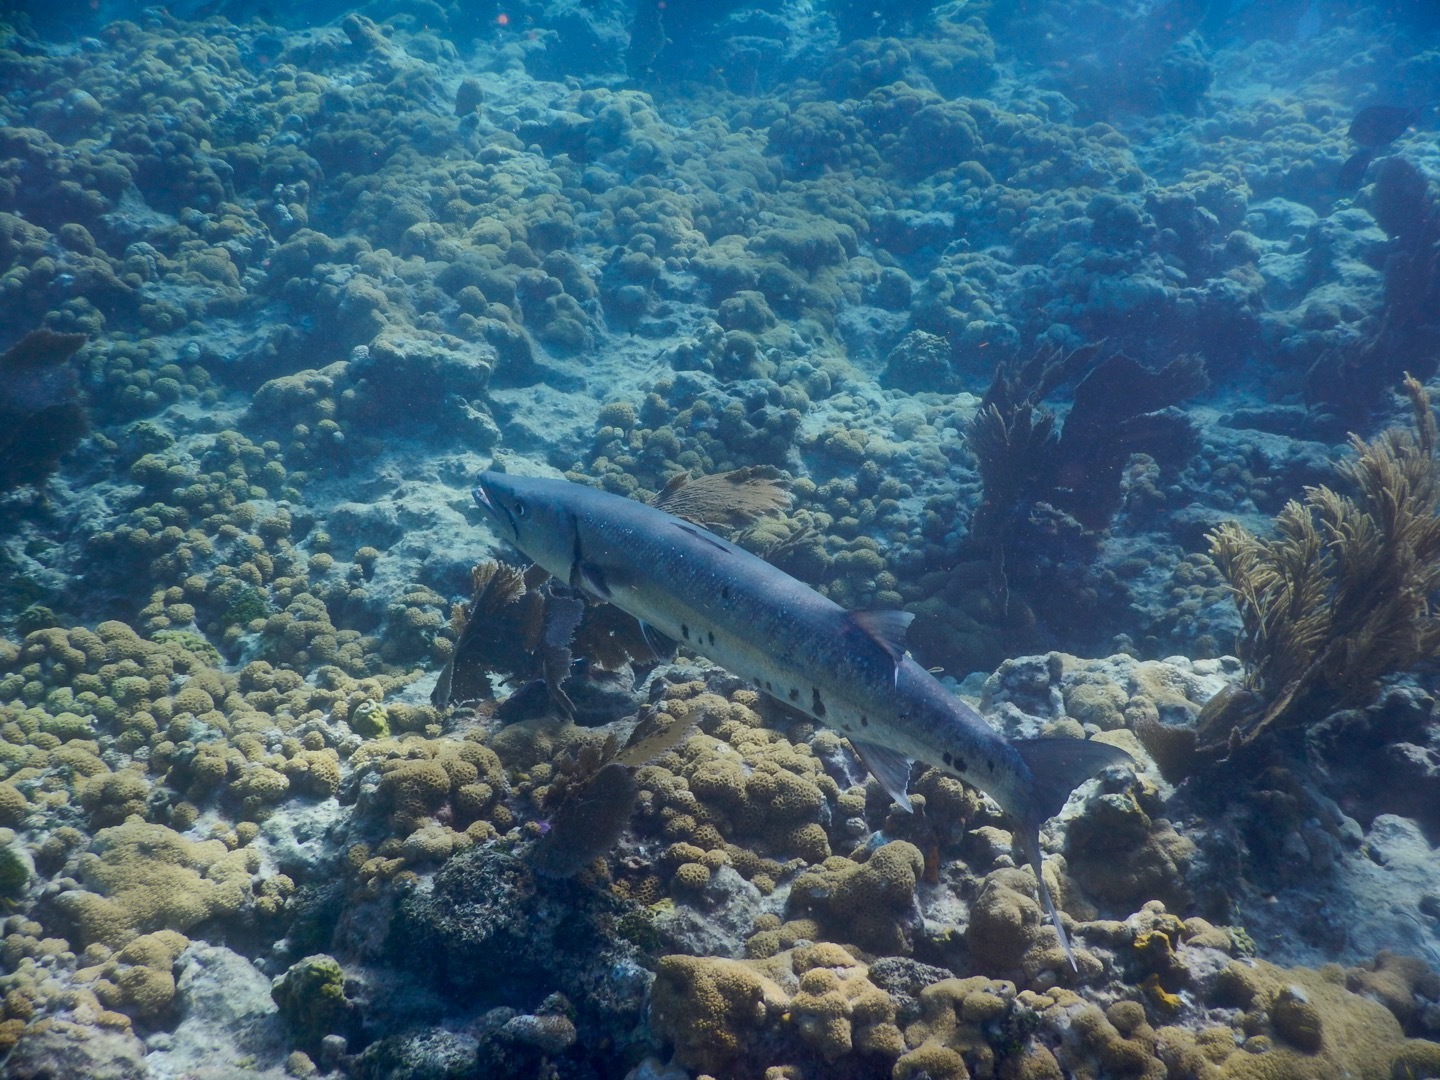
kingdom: Animalia
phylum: Chordata
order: Perciformes
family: Sphyraenidae
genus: Sphyraena
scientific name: Sphyraena barracuda
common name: Great barracuda
